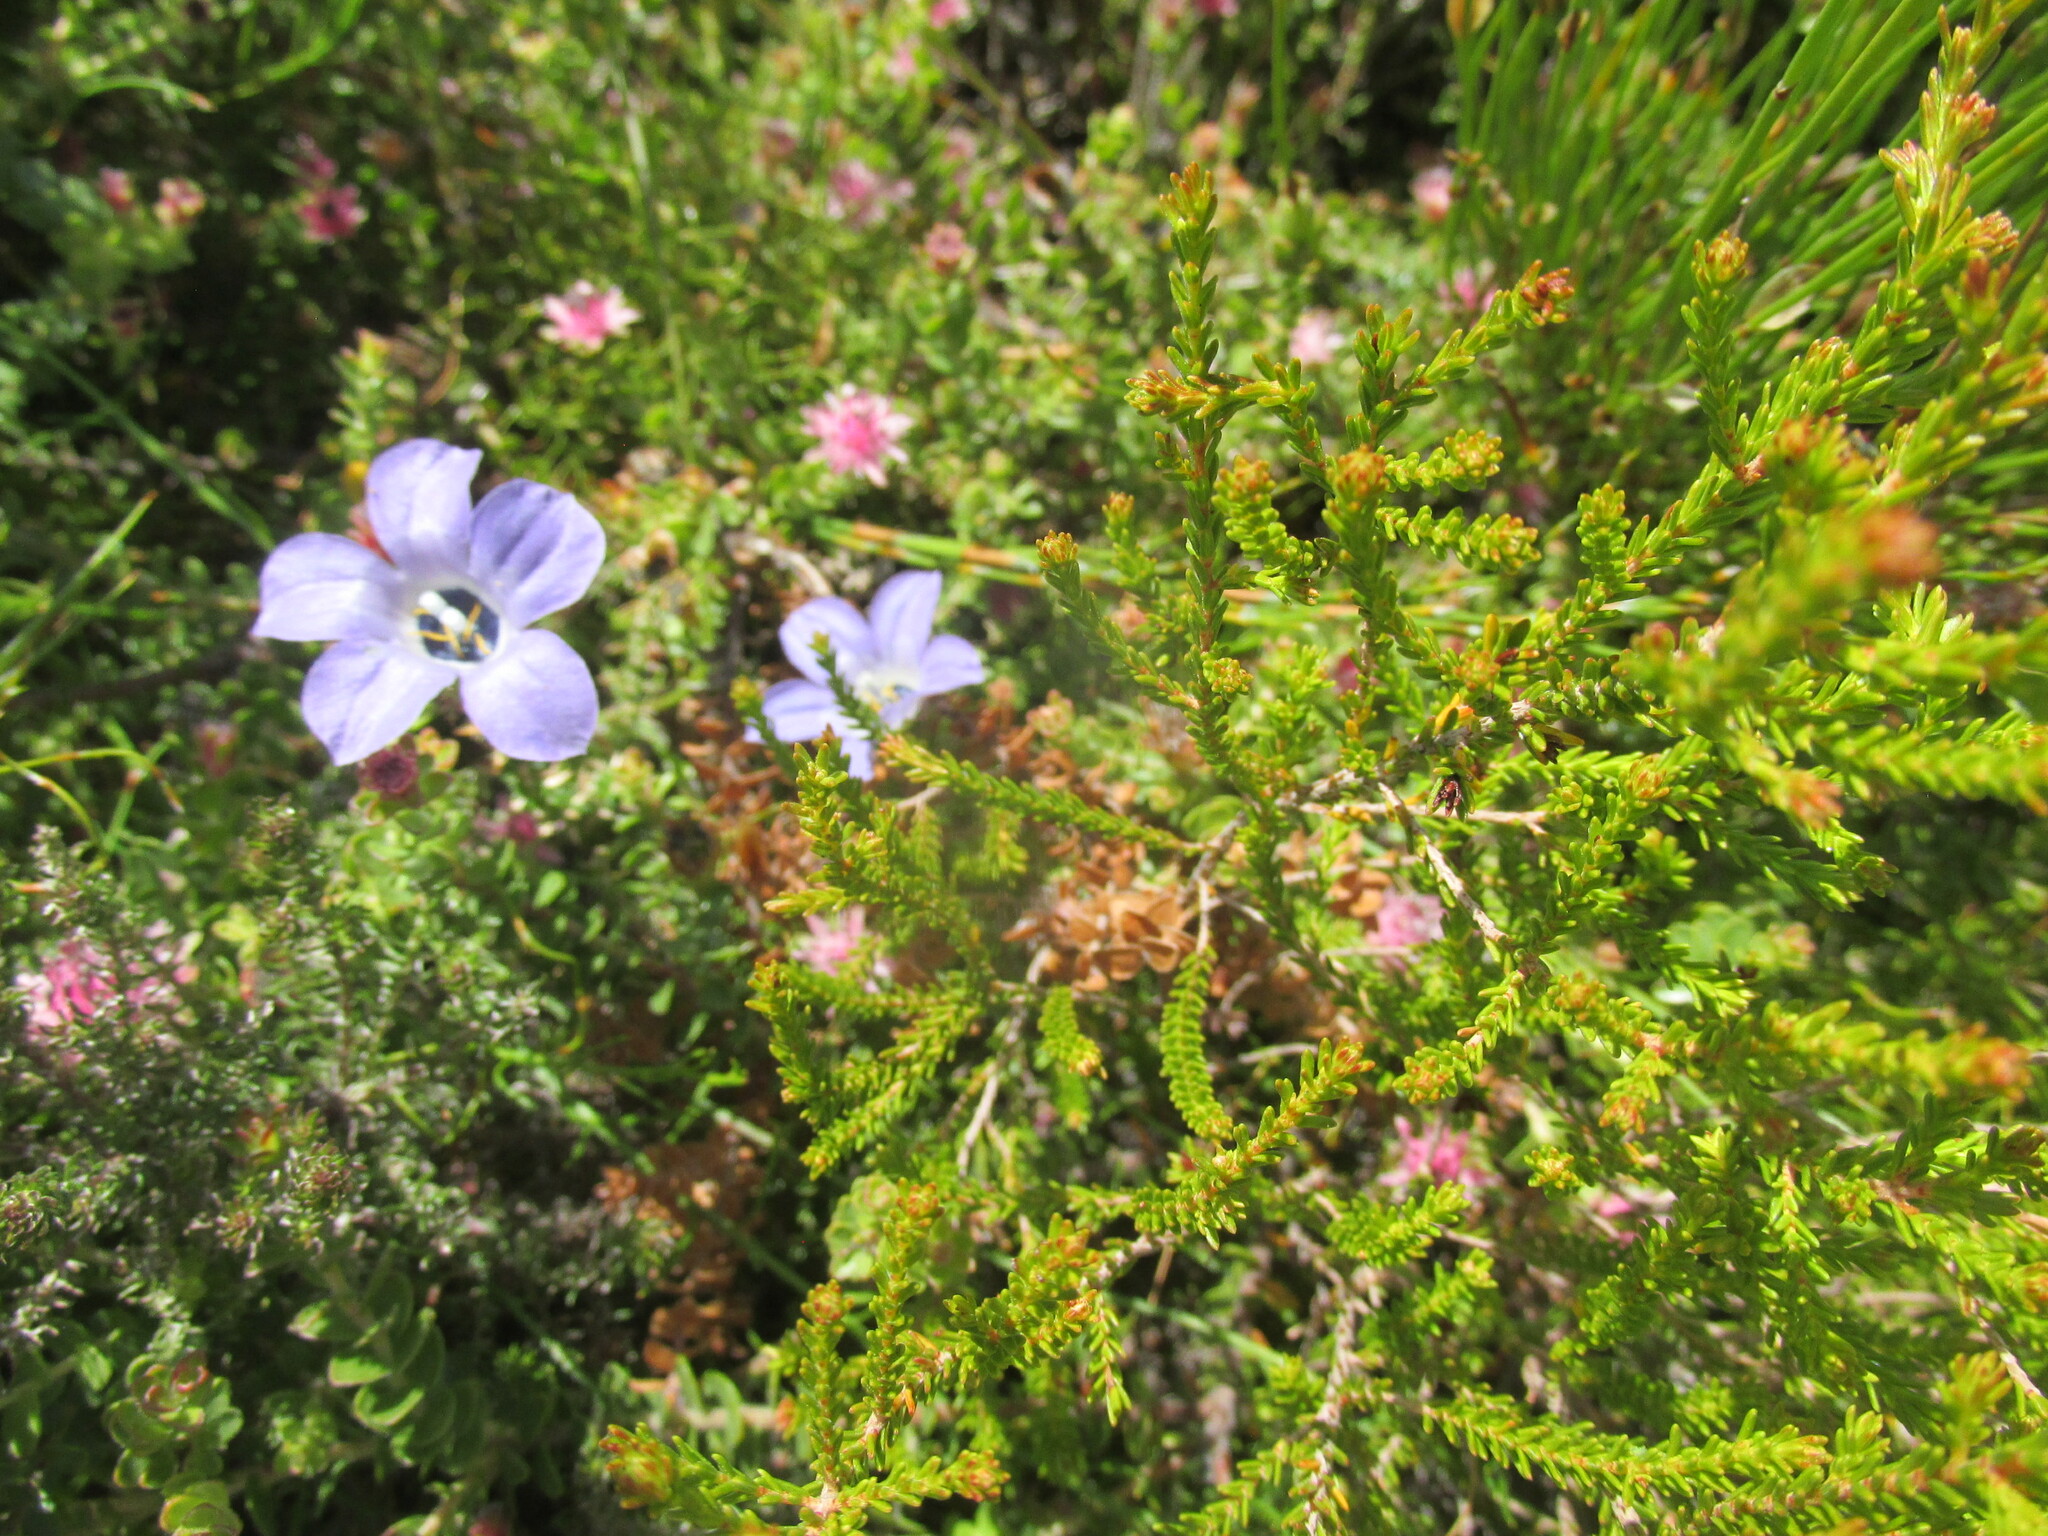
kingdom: Plantae
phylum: Tracheophyta
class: Magnoliopsida
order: Asterales
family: Campanulaceae
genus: Roella
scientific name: Roella triflora
